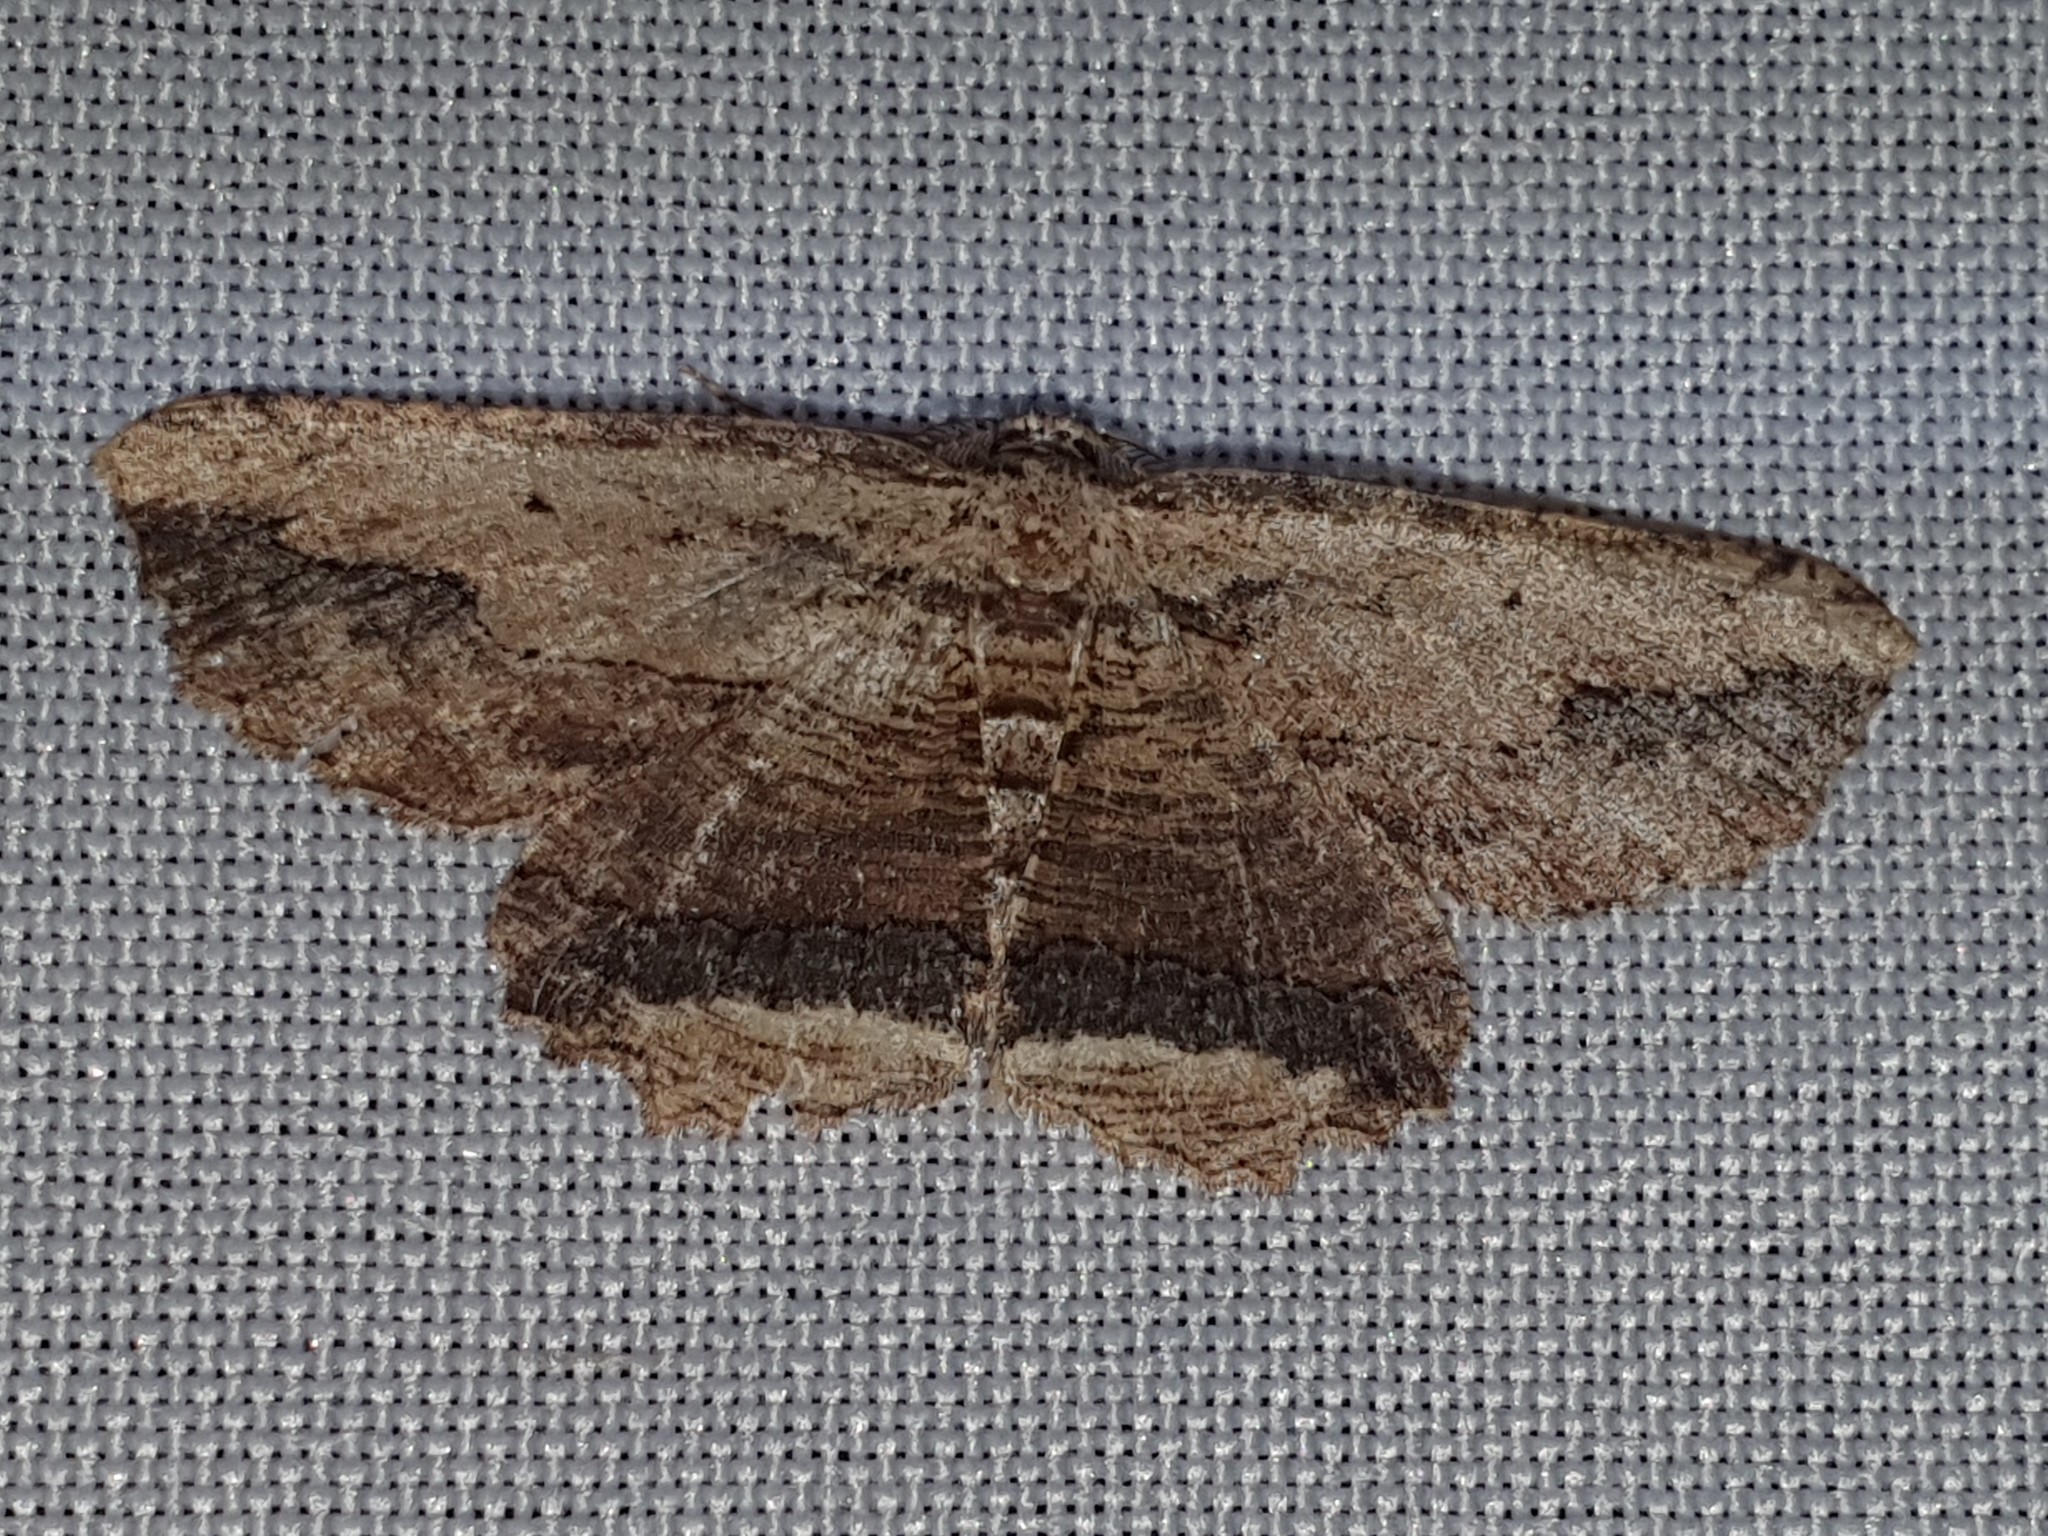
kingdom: Animalia
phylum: Arthropoda
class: Insecta
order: Lepidoptera
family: Geometridae
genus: Menophra
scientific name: Menophra abruptaria
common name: Waved umber
